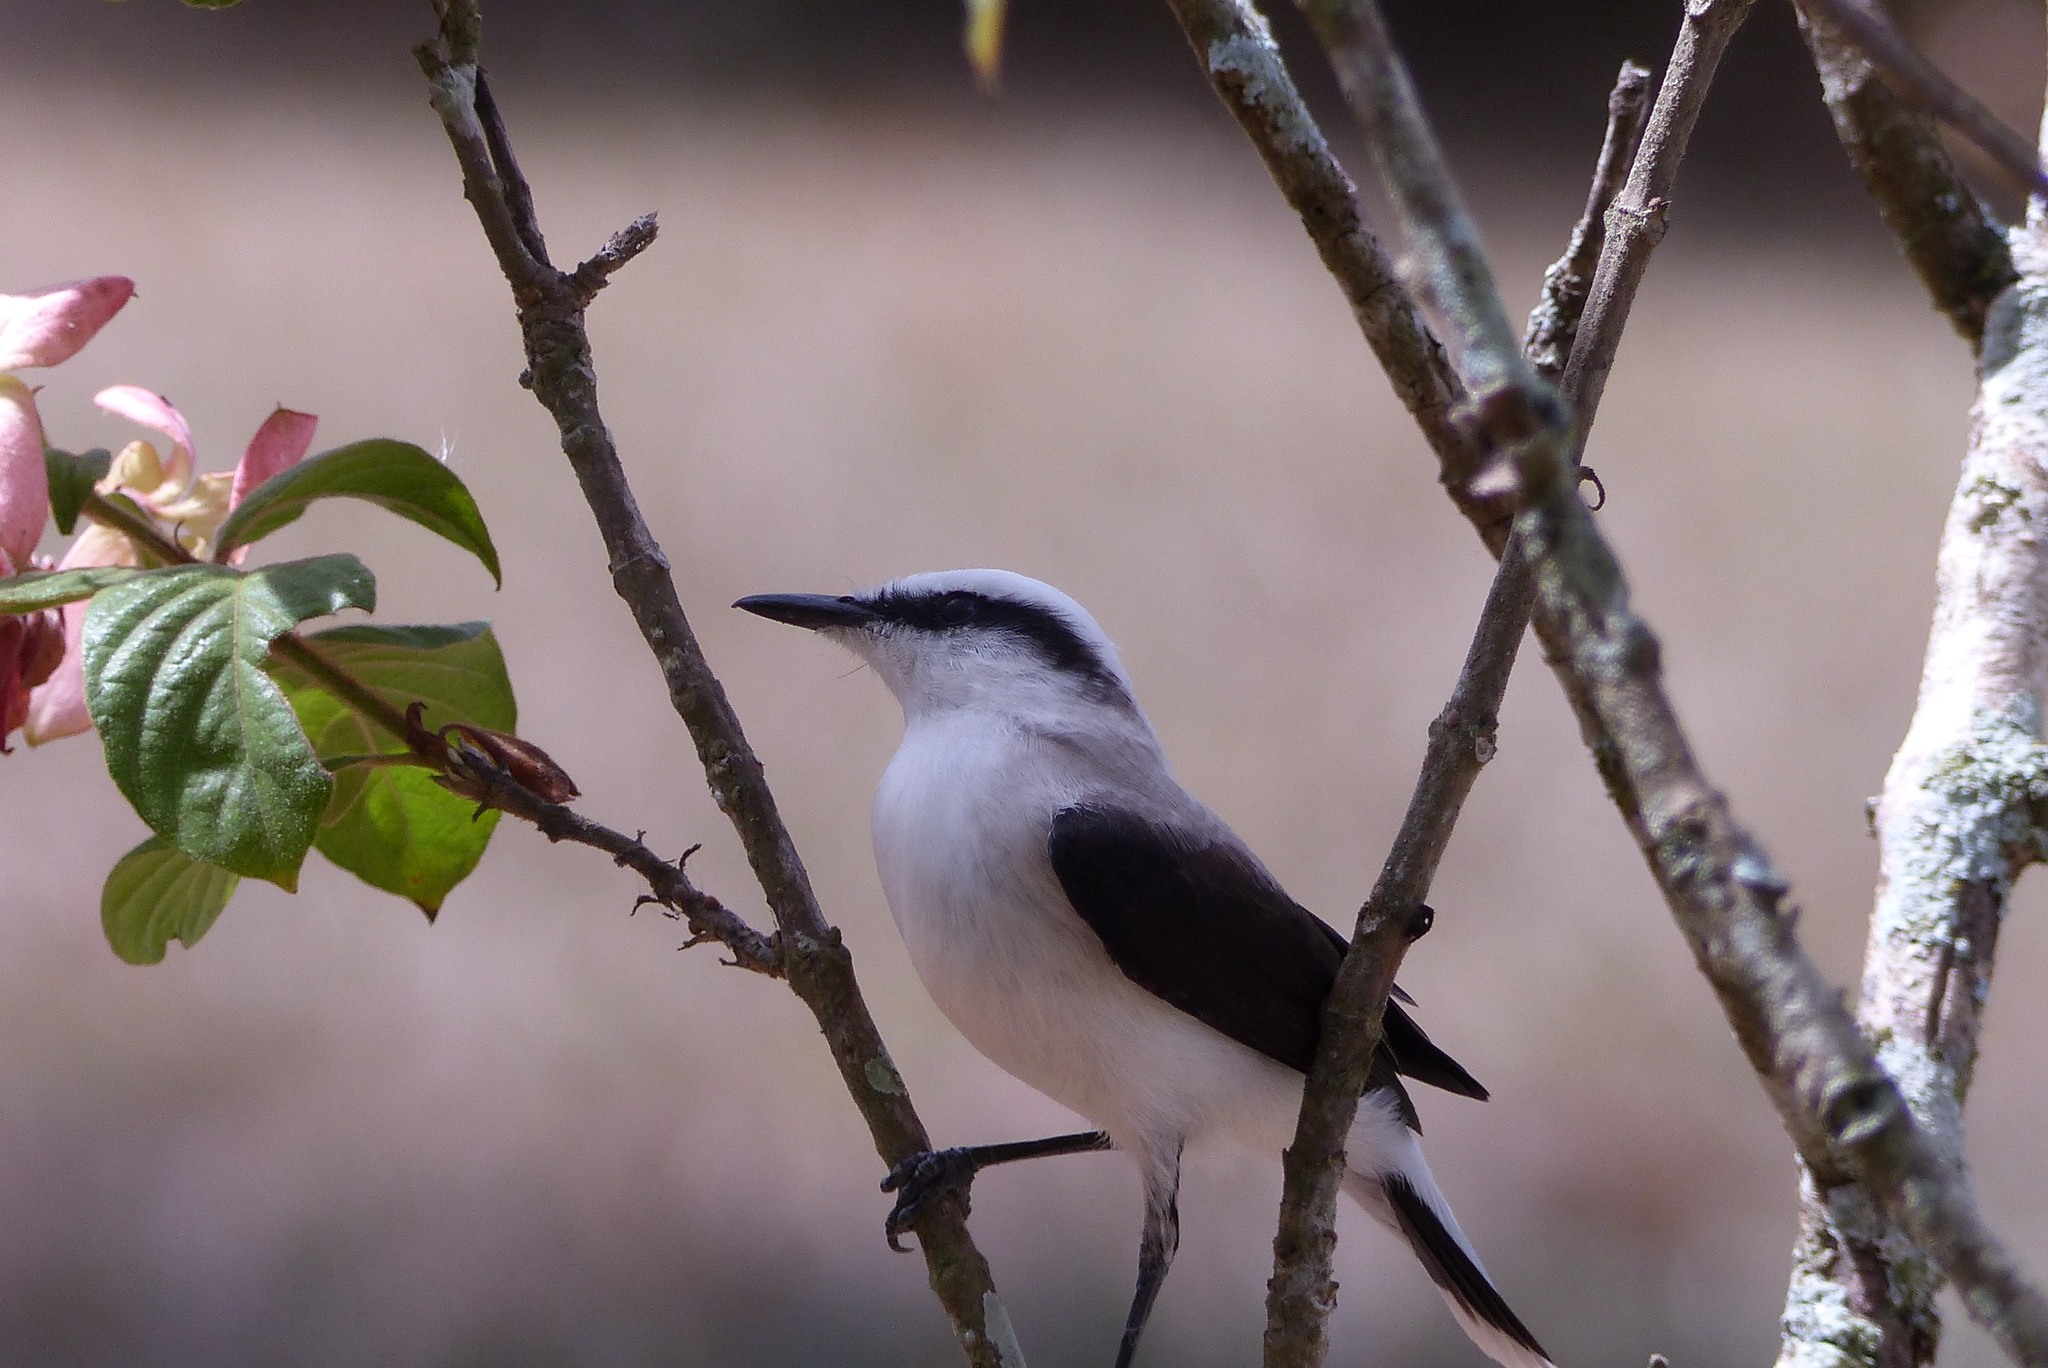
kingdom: Animalia
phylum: Chordata
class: Aves
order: Passeriformes
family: Tyrannidae
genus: Fluvicola
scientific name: Fluvicola nengeta
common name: Masked water tyrant
